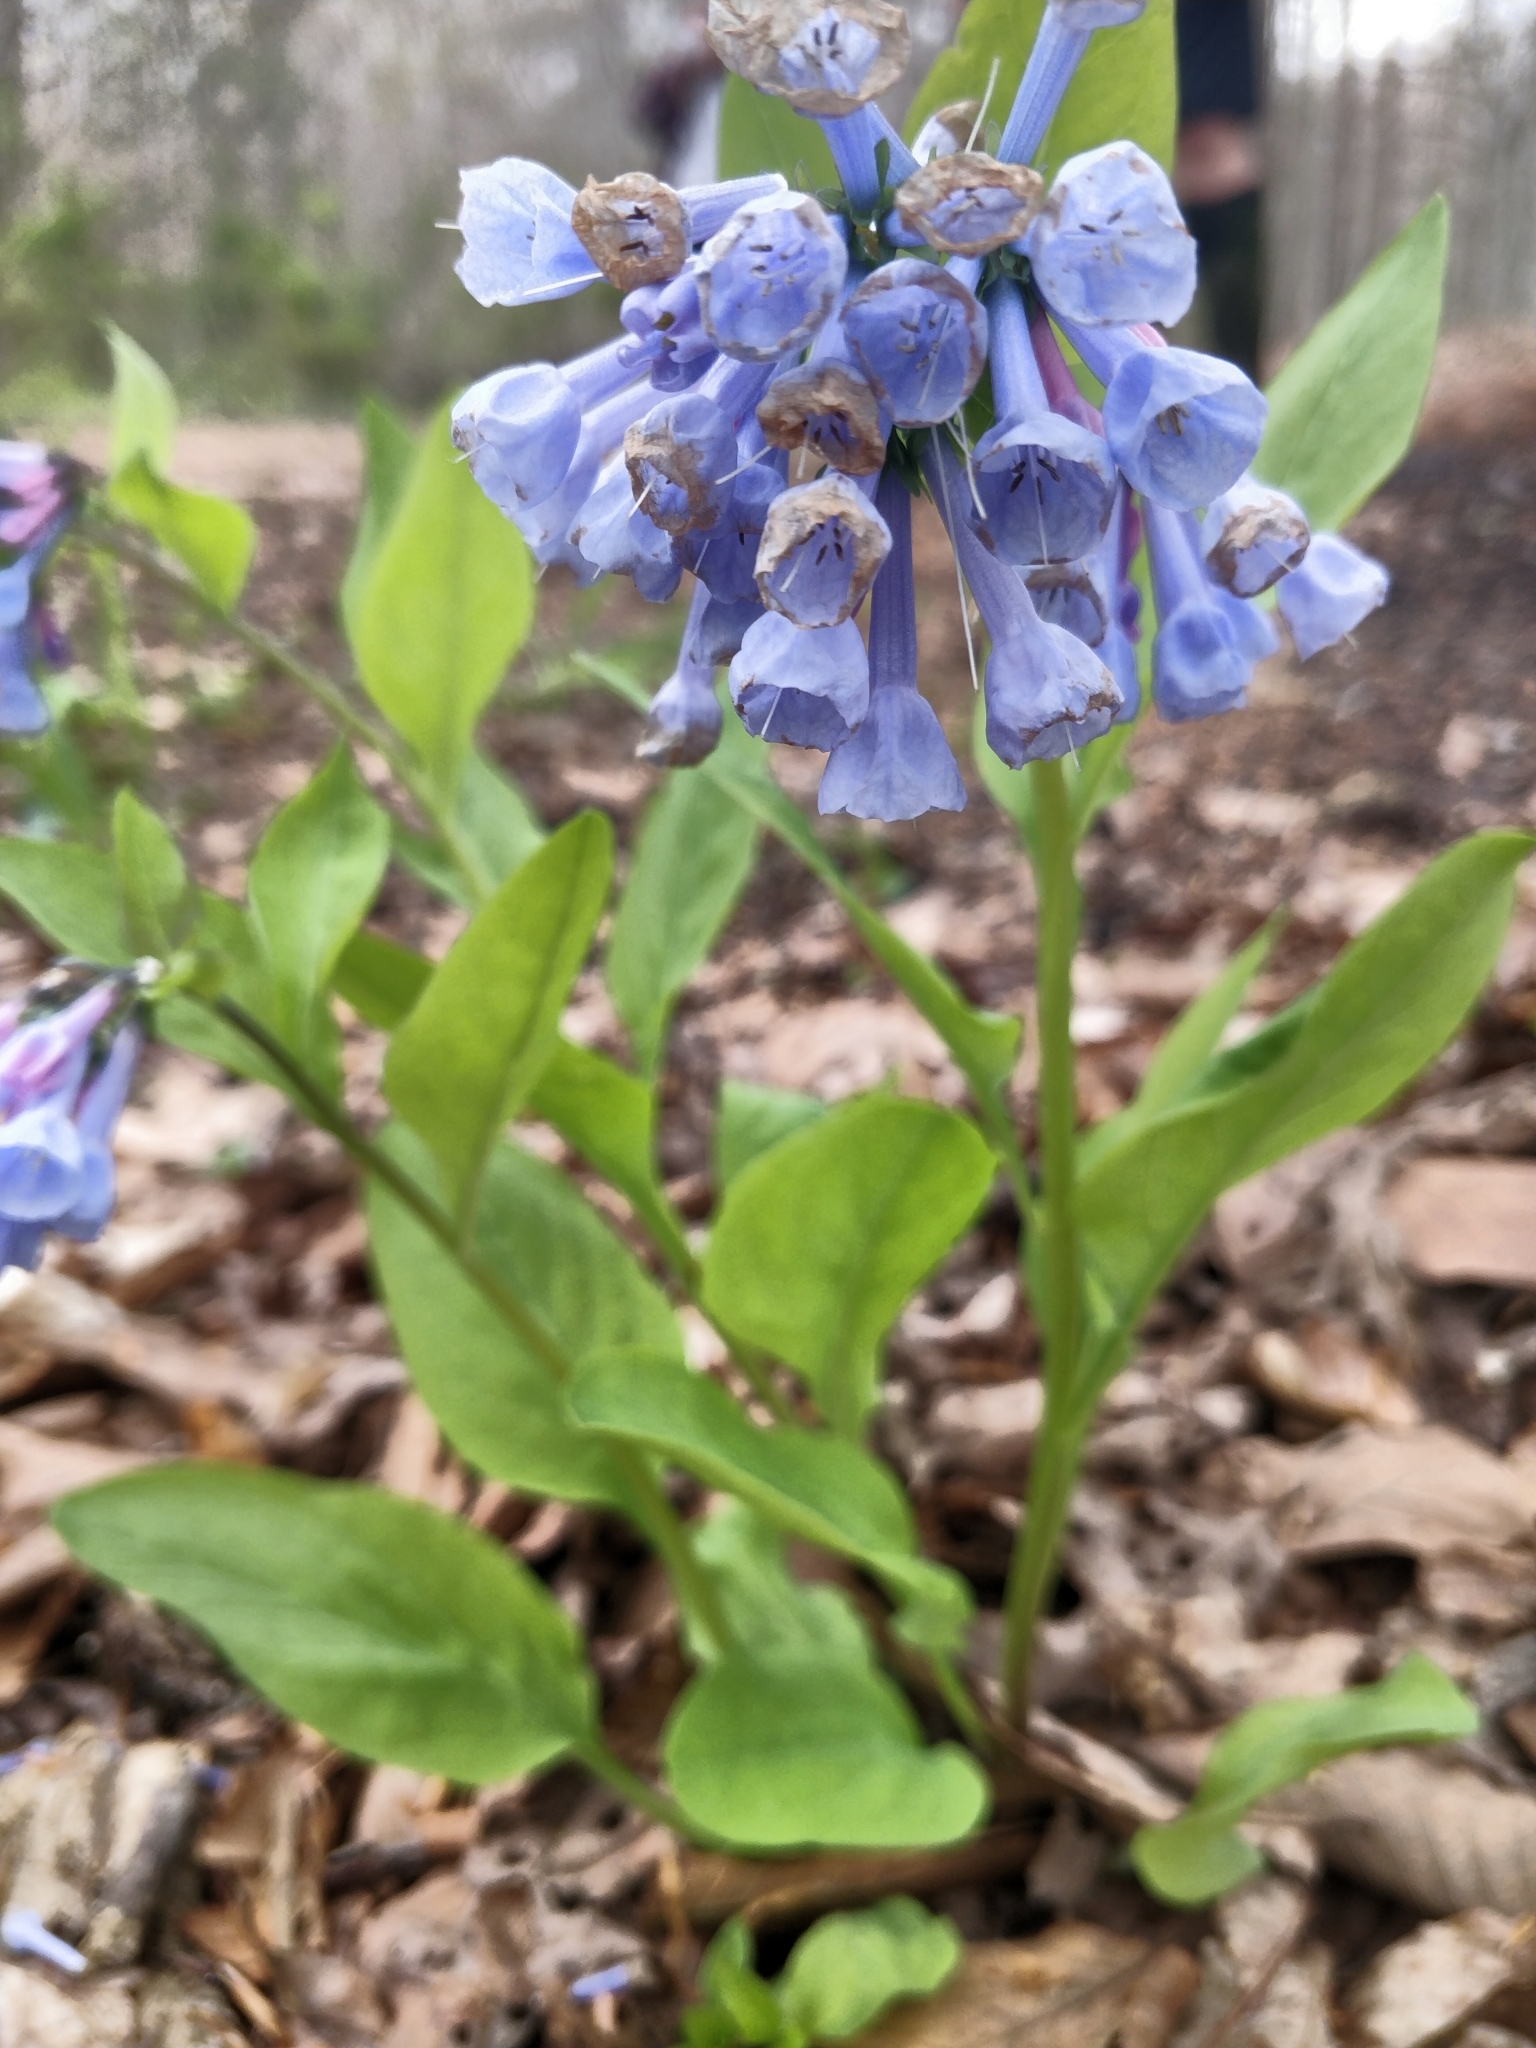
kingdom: Plantae
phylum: Tracheophyta
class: Magnoliopsida
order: Boraginales
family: Boraginaceae
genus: Mertensia
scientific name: Mertensia virginica
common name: Virginia bluebells
